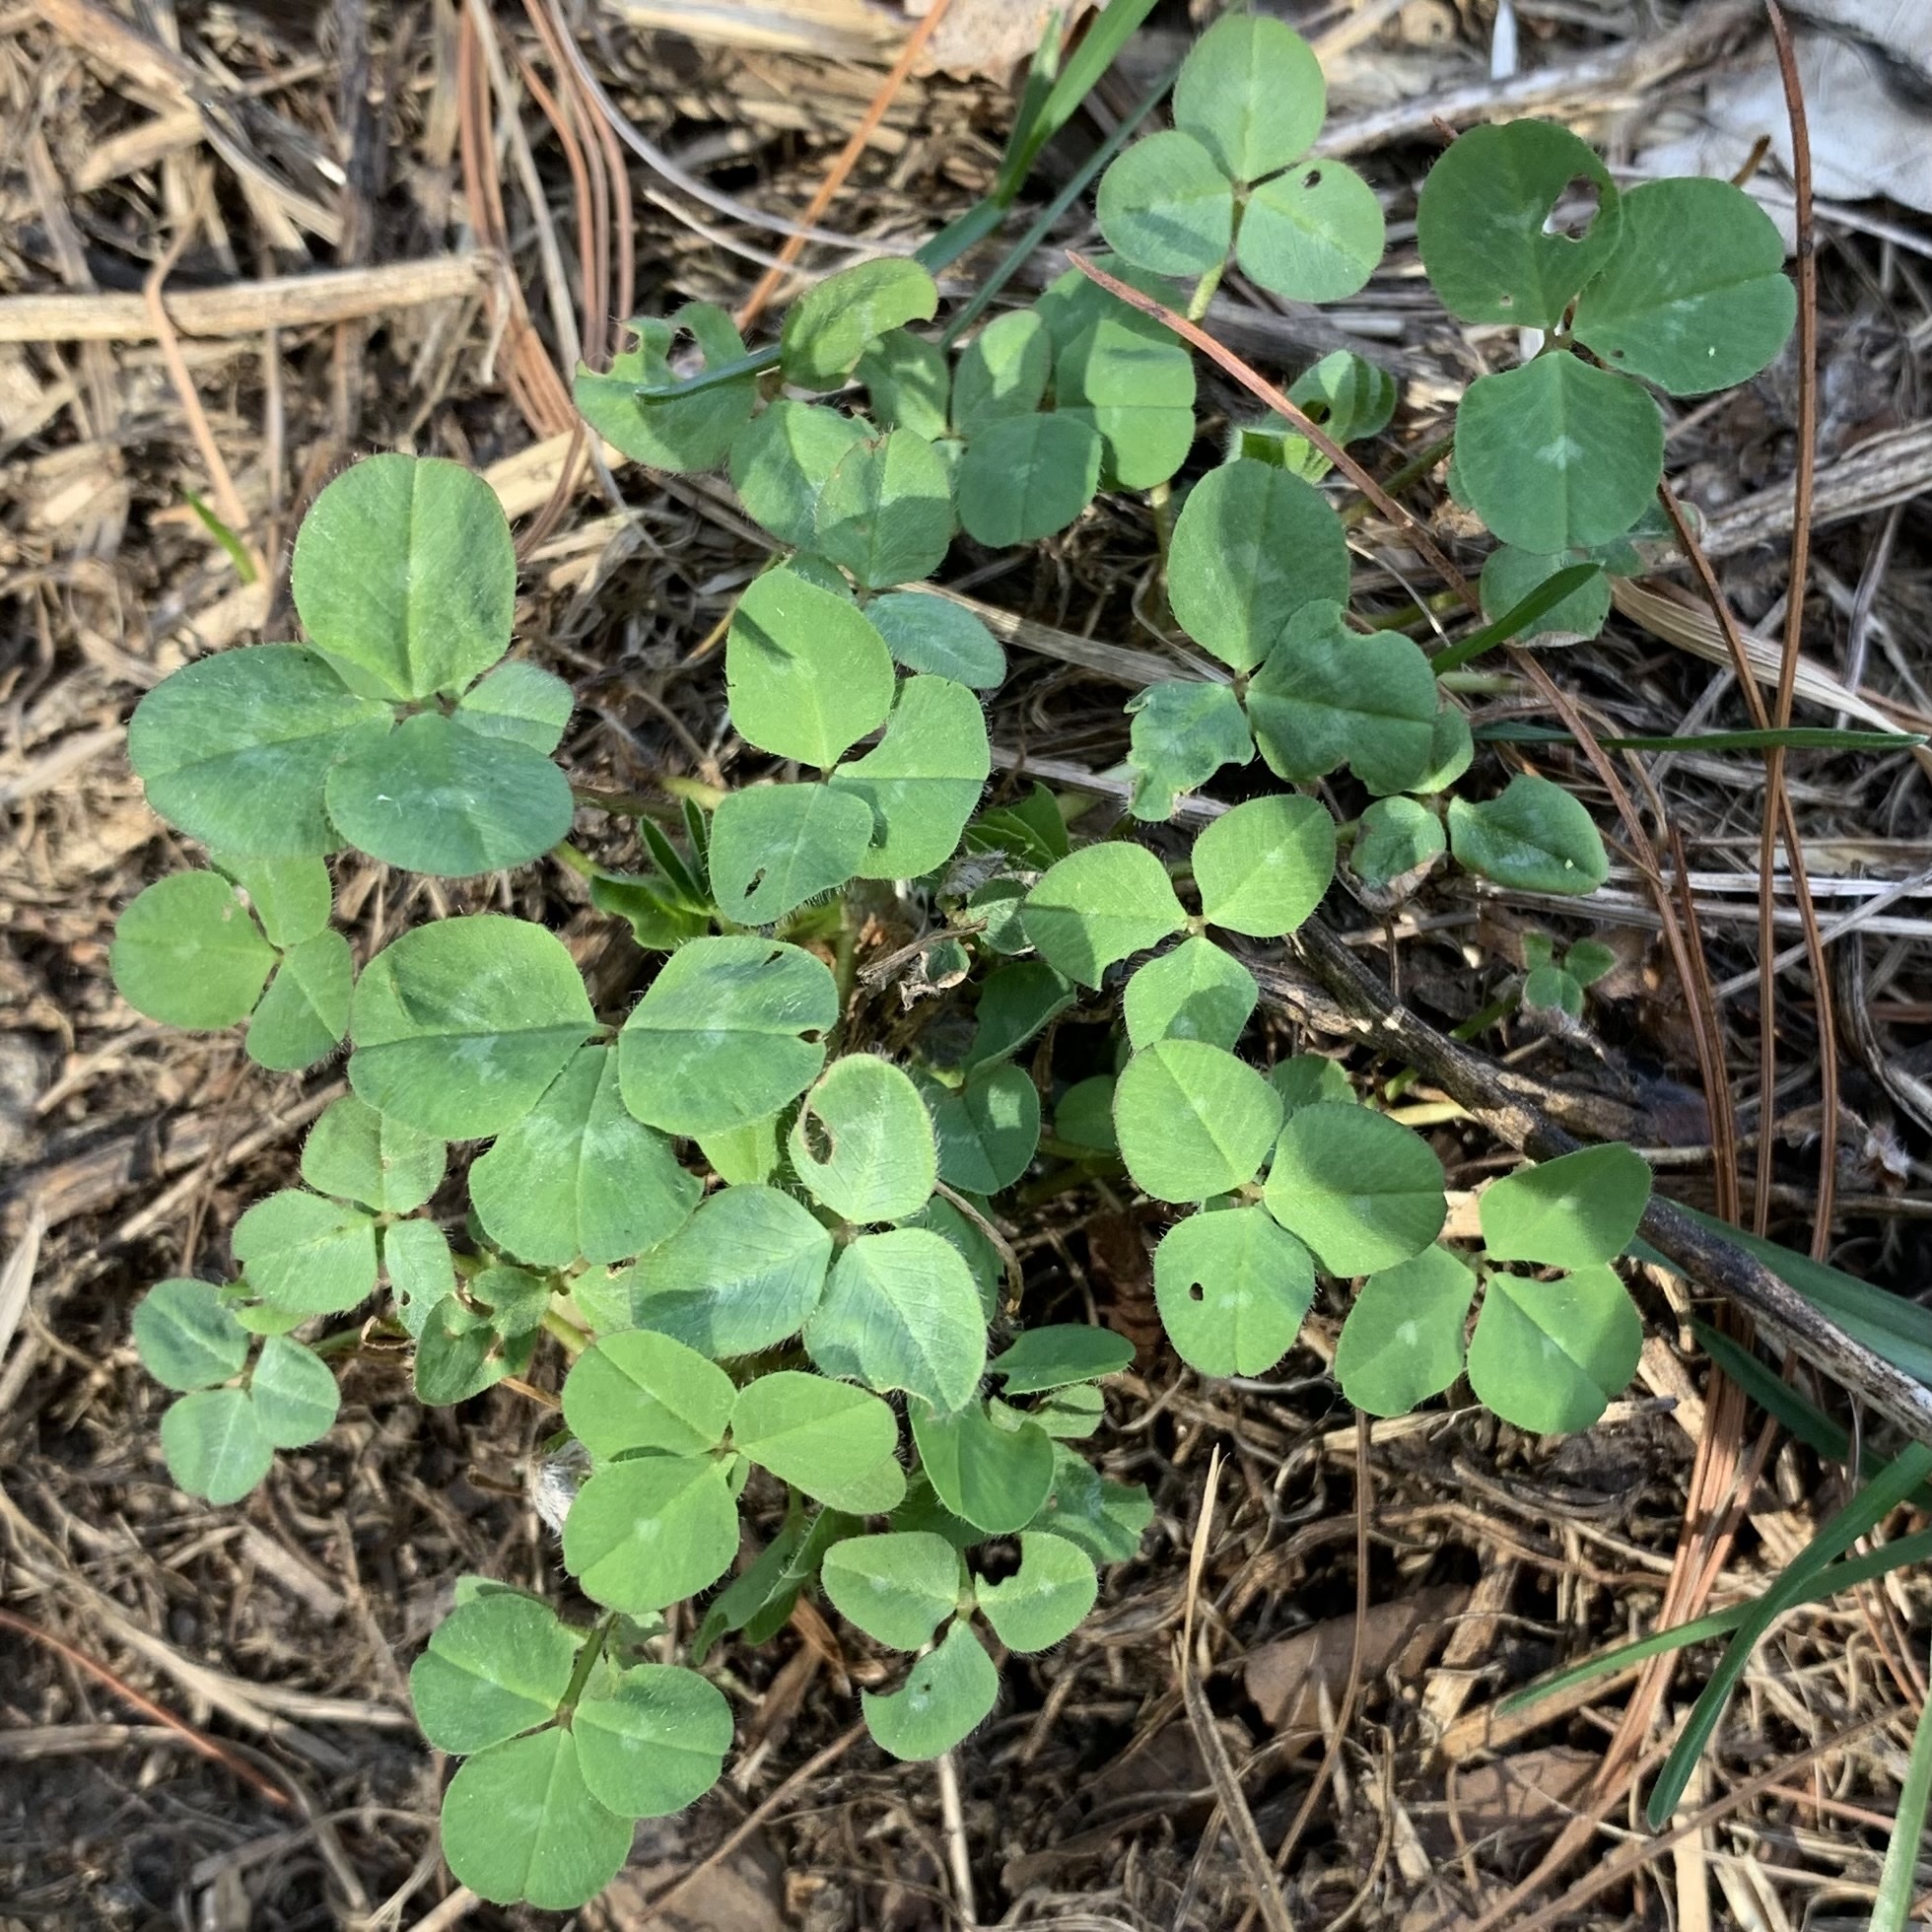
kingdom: Plantae
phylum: Tracheophyta
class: Magnoliopsida
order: Fabales
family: Fabaceae
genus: Trifolium
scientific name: Trifolium pratense
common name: Red clover
